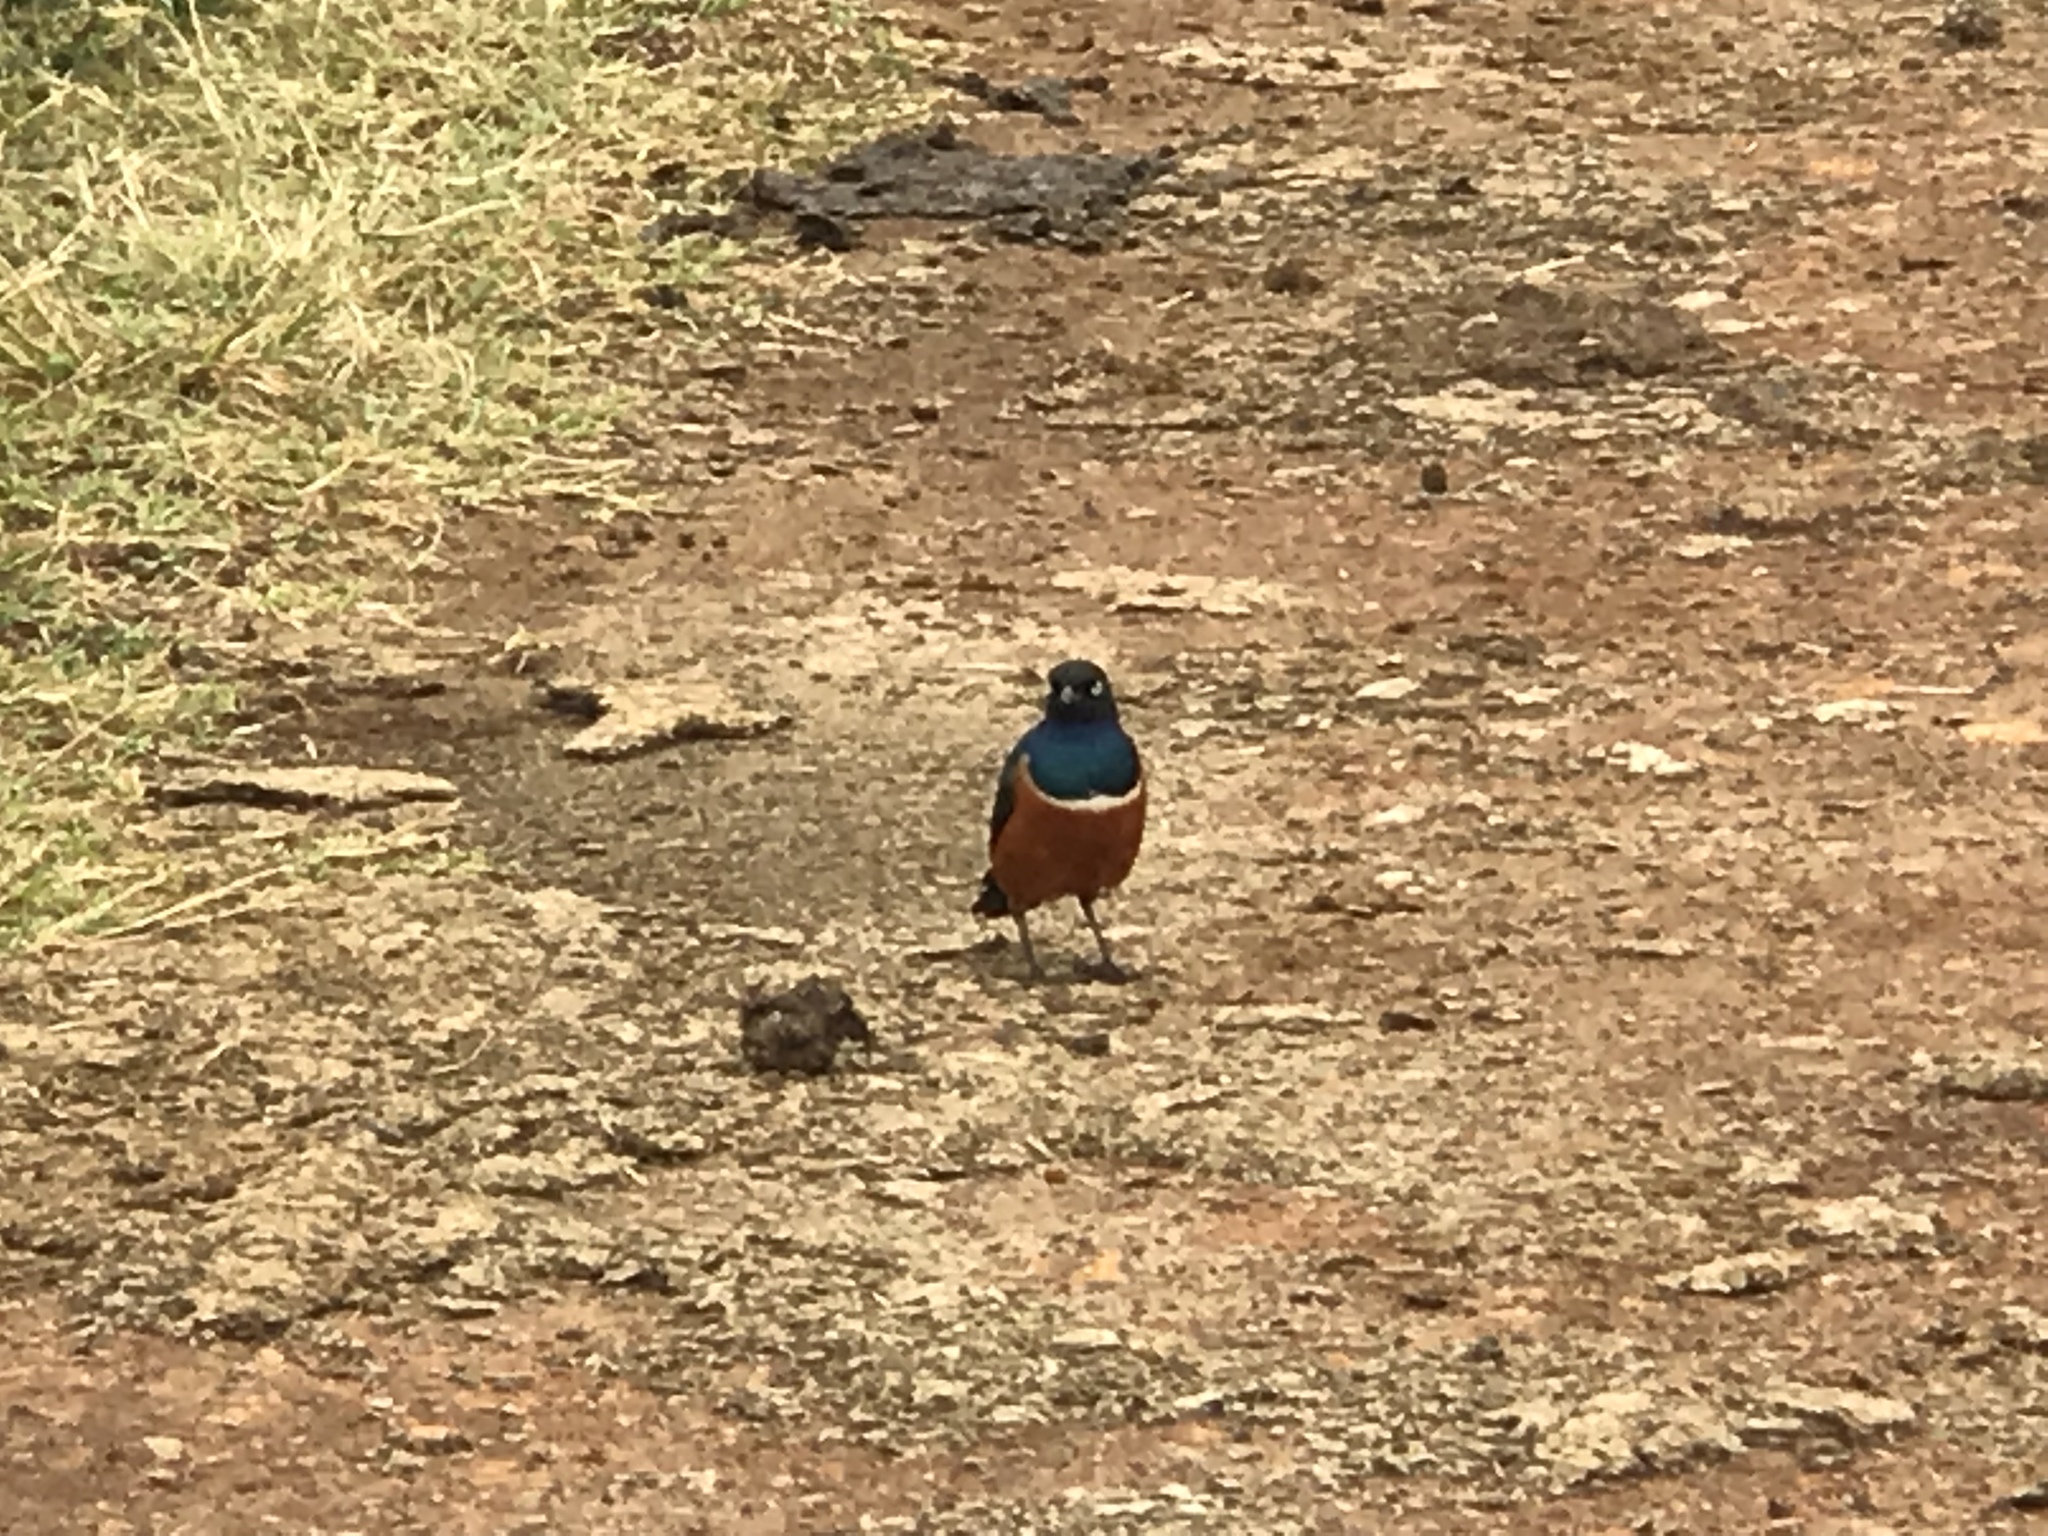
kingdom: Animalia
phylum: Chordata
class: Aves
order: Passeriformes
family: Sturnidae
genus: Lamprotornis
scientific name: Lamprotornis superbus
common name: Superb starling
